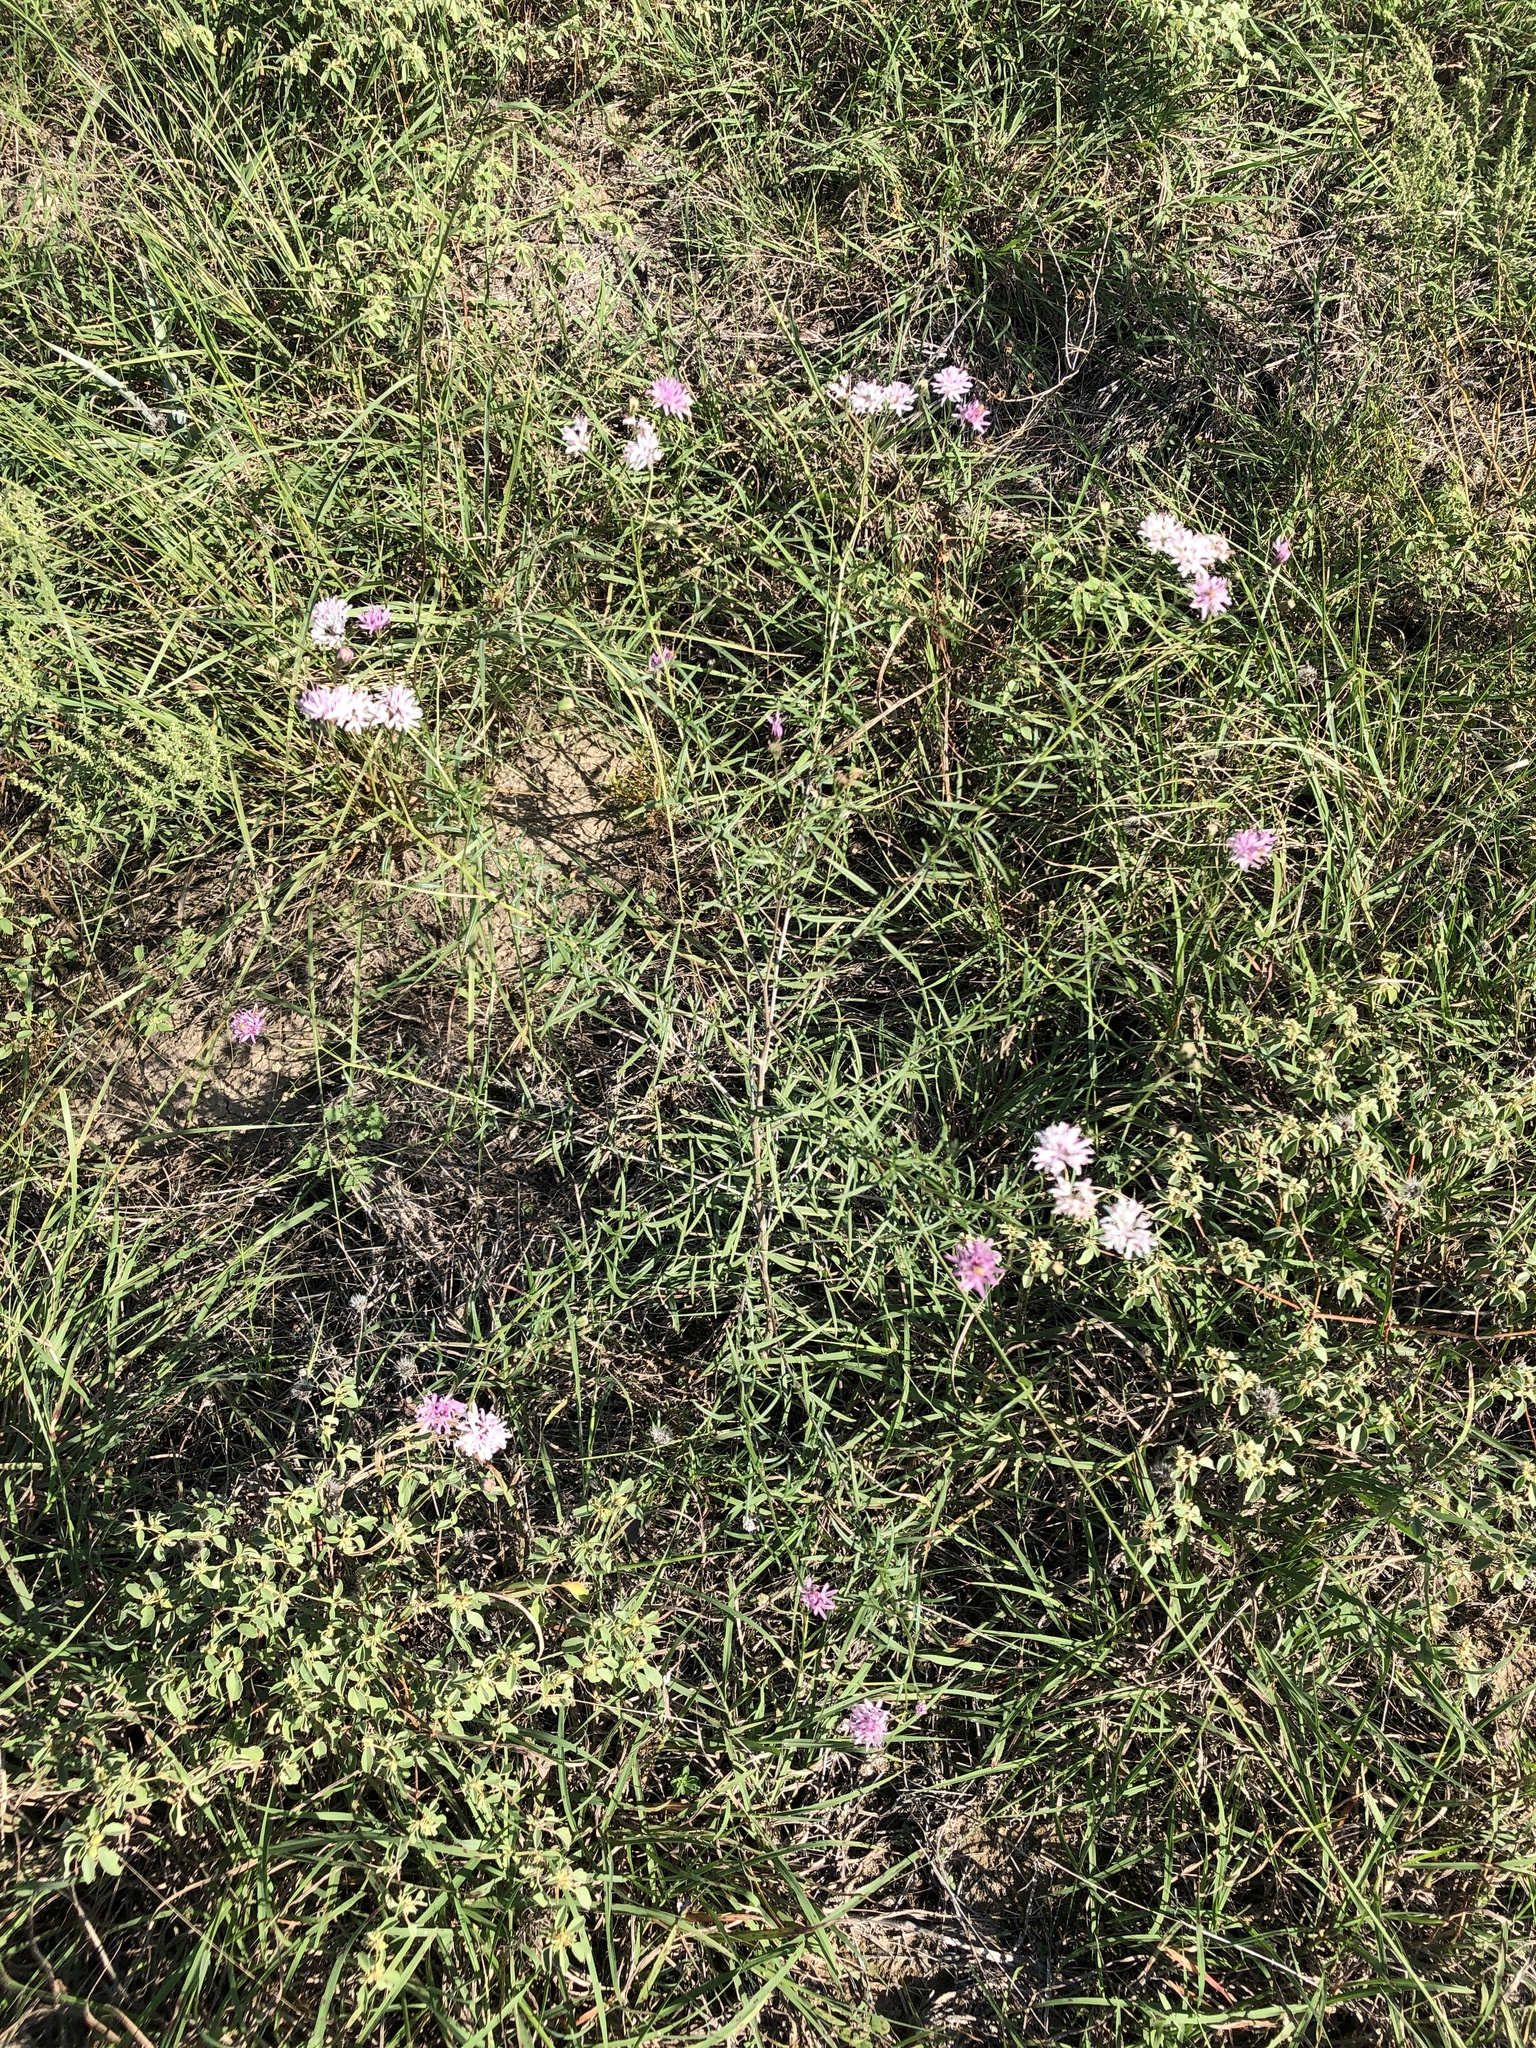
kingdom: Plantae
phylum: Tracheophyta
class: Magnoliopsida
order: Asterales
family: Asteraceae
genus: Palafoxia
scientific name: Palafoxia callosa
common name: Small palafox
